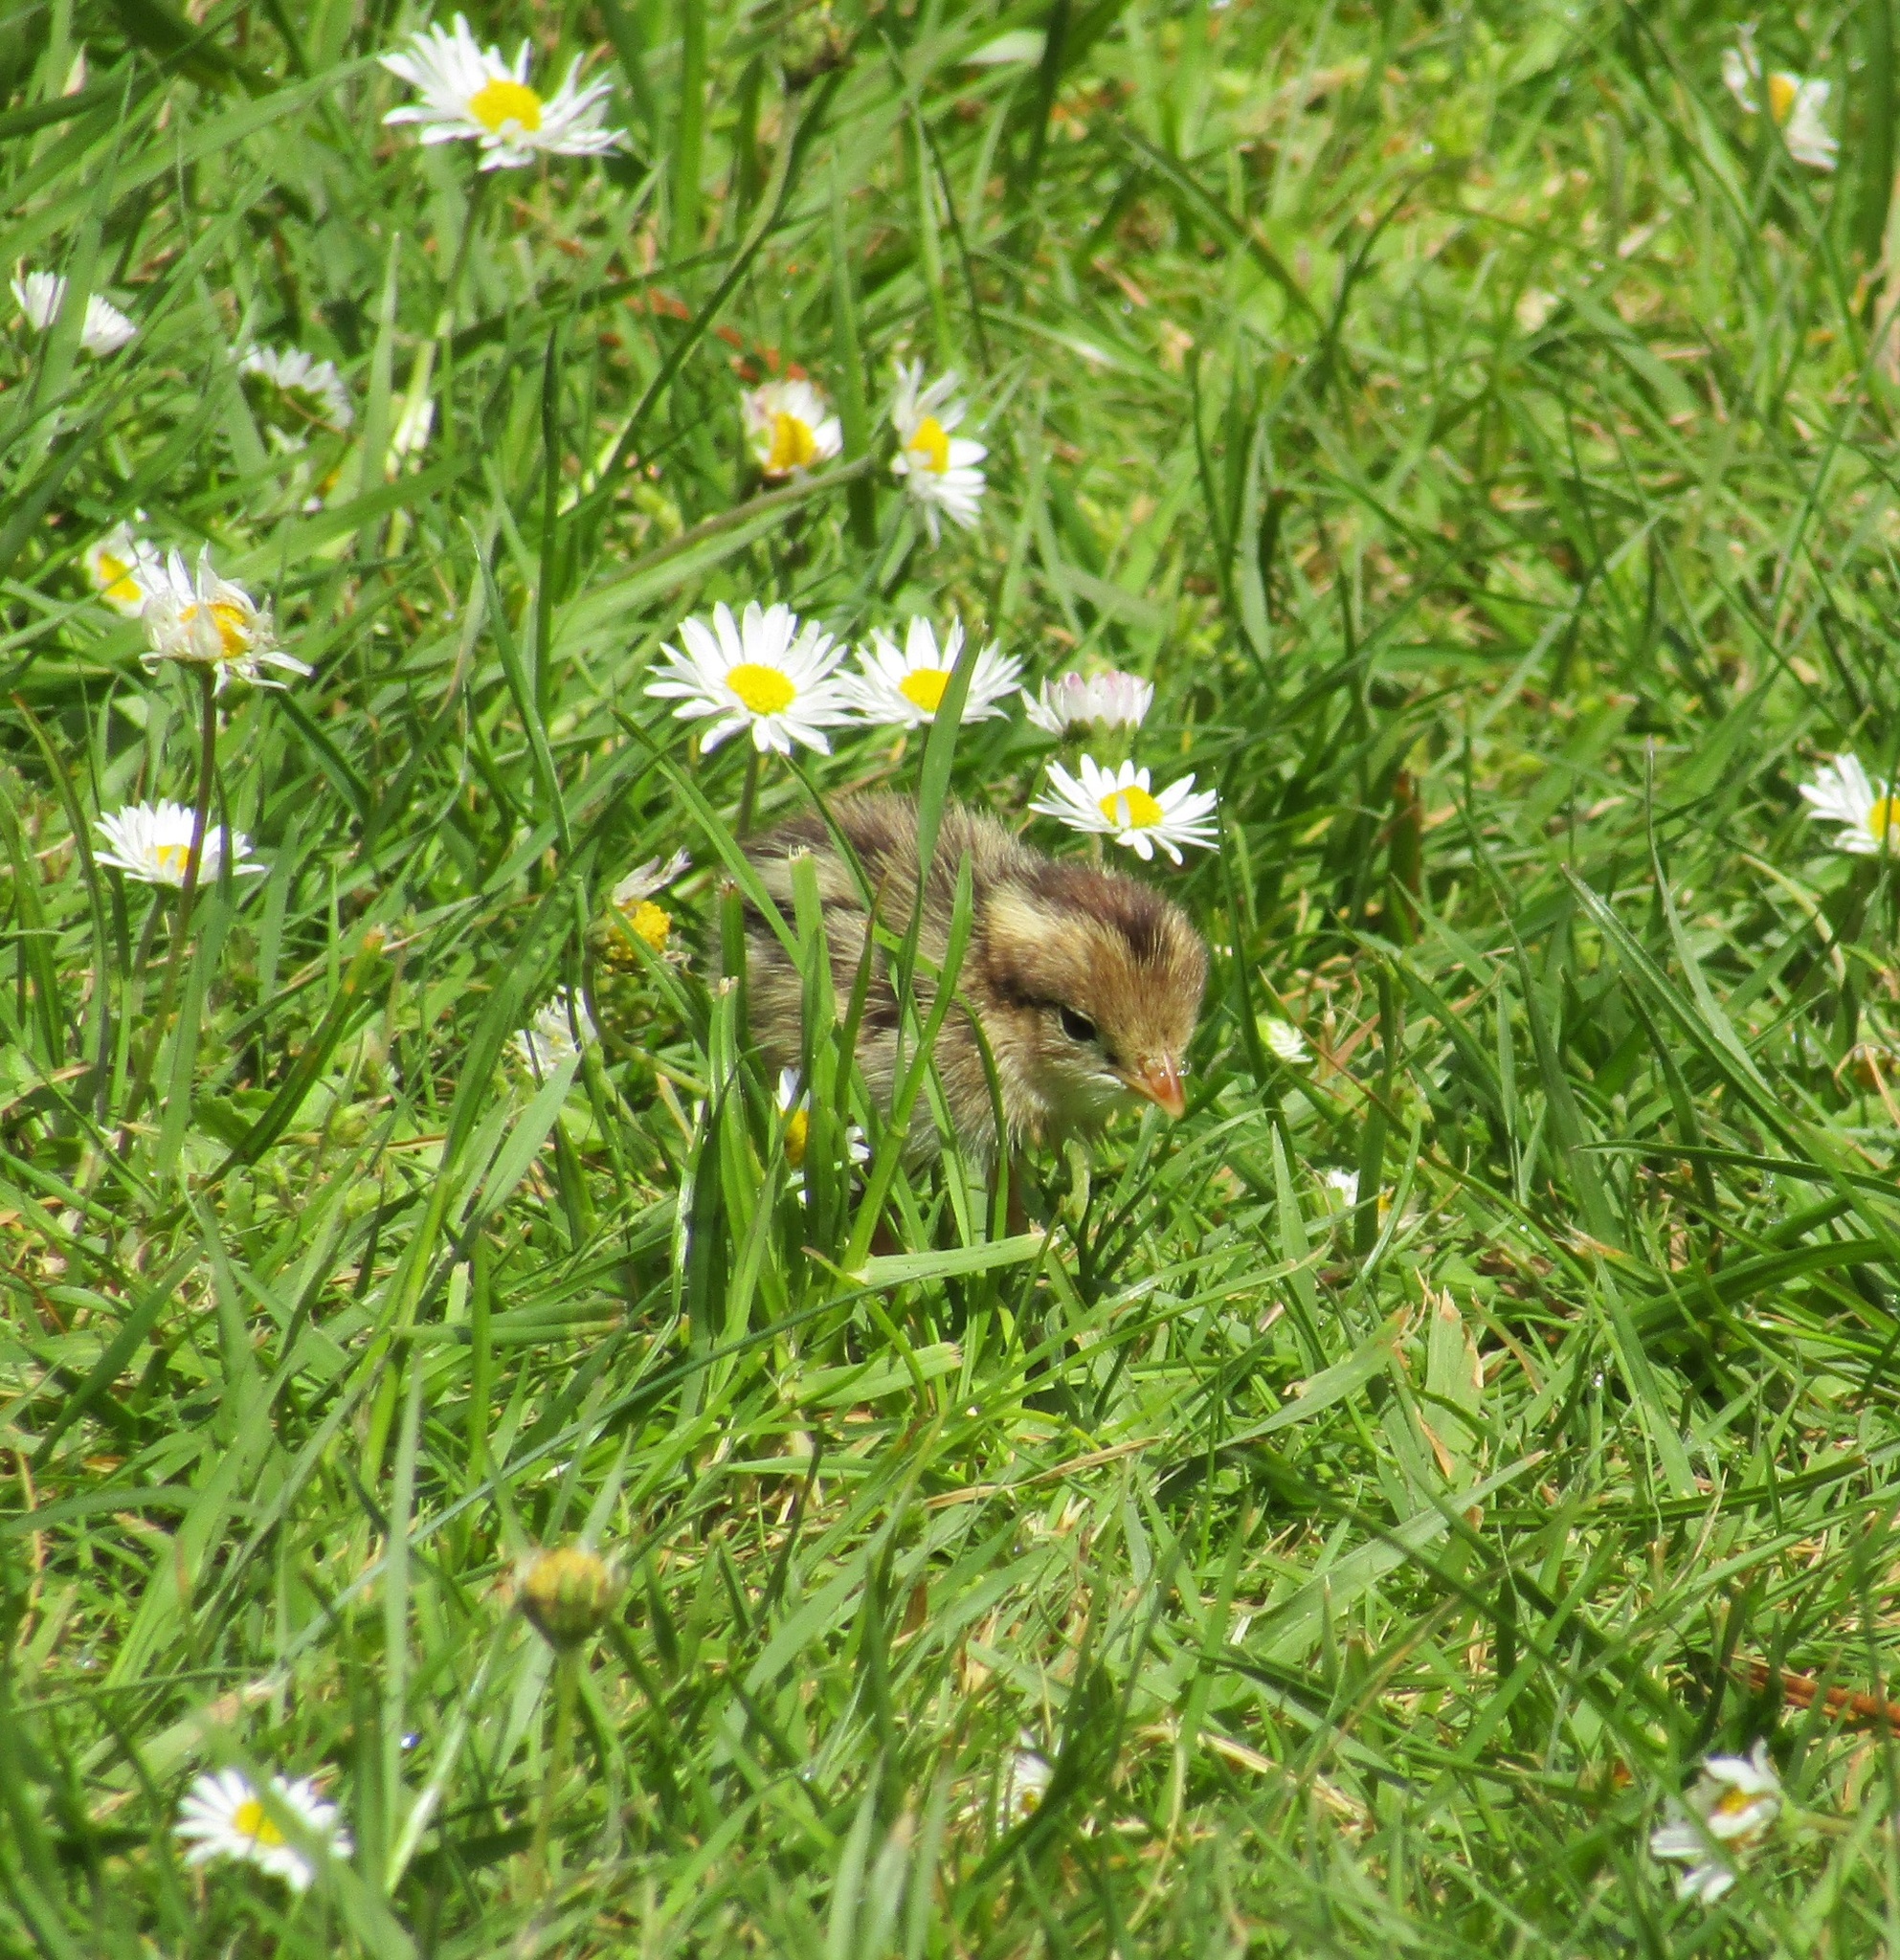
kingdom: Animalia
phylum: Chordata
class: Aves
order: Galliformes
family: Odontophoridae
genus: Callipepla
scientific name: Callipepla californica
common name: California quail
